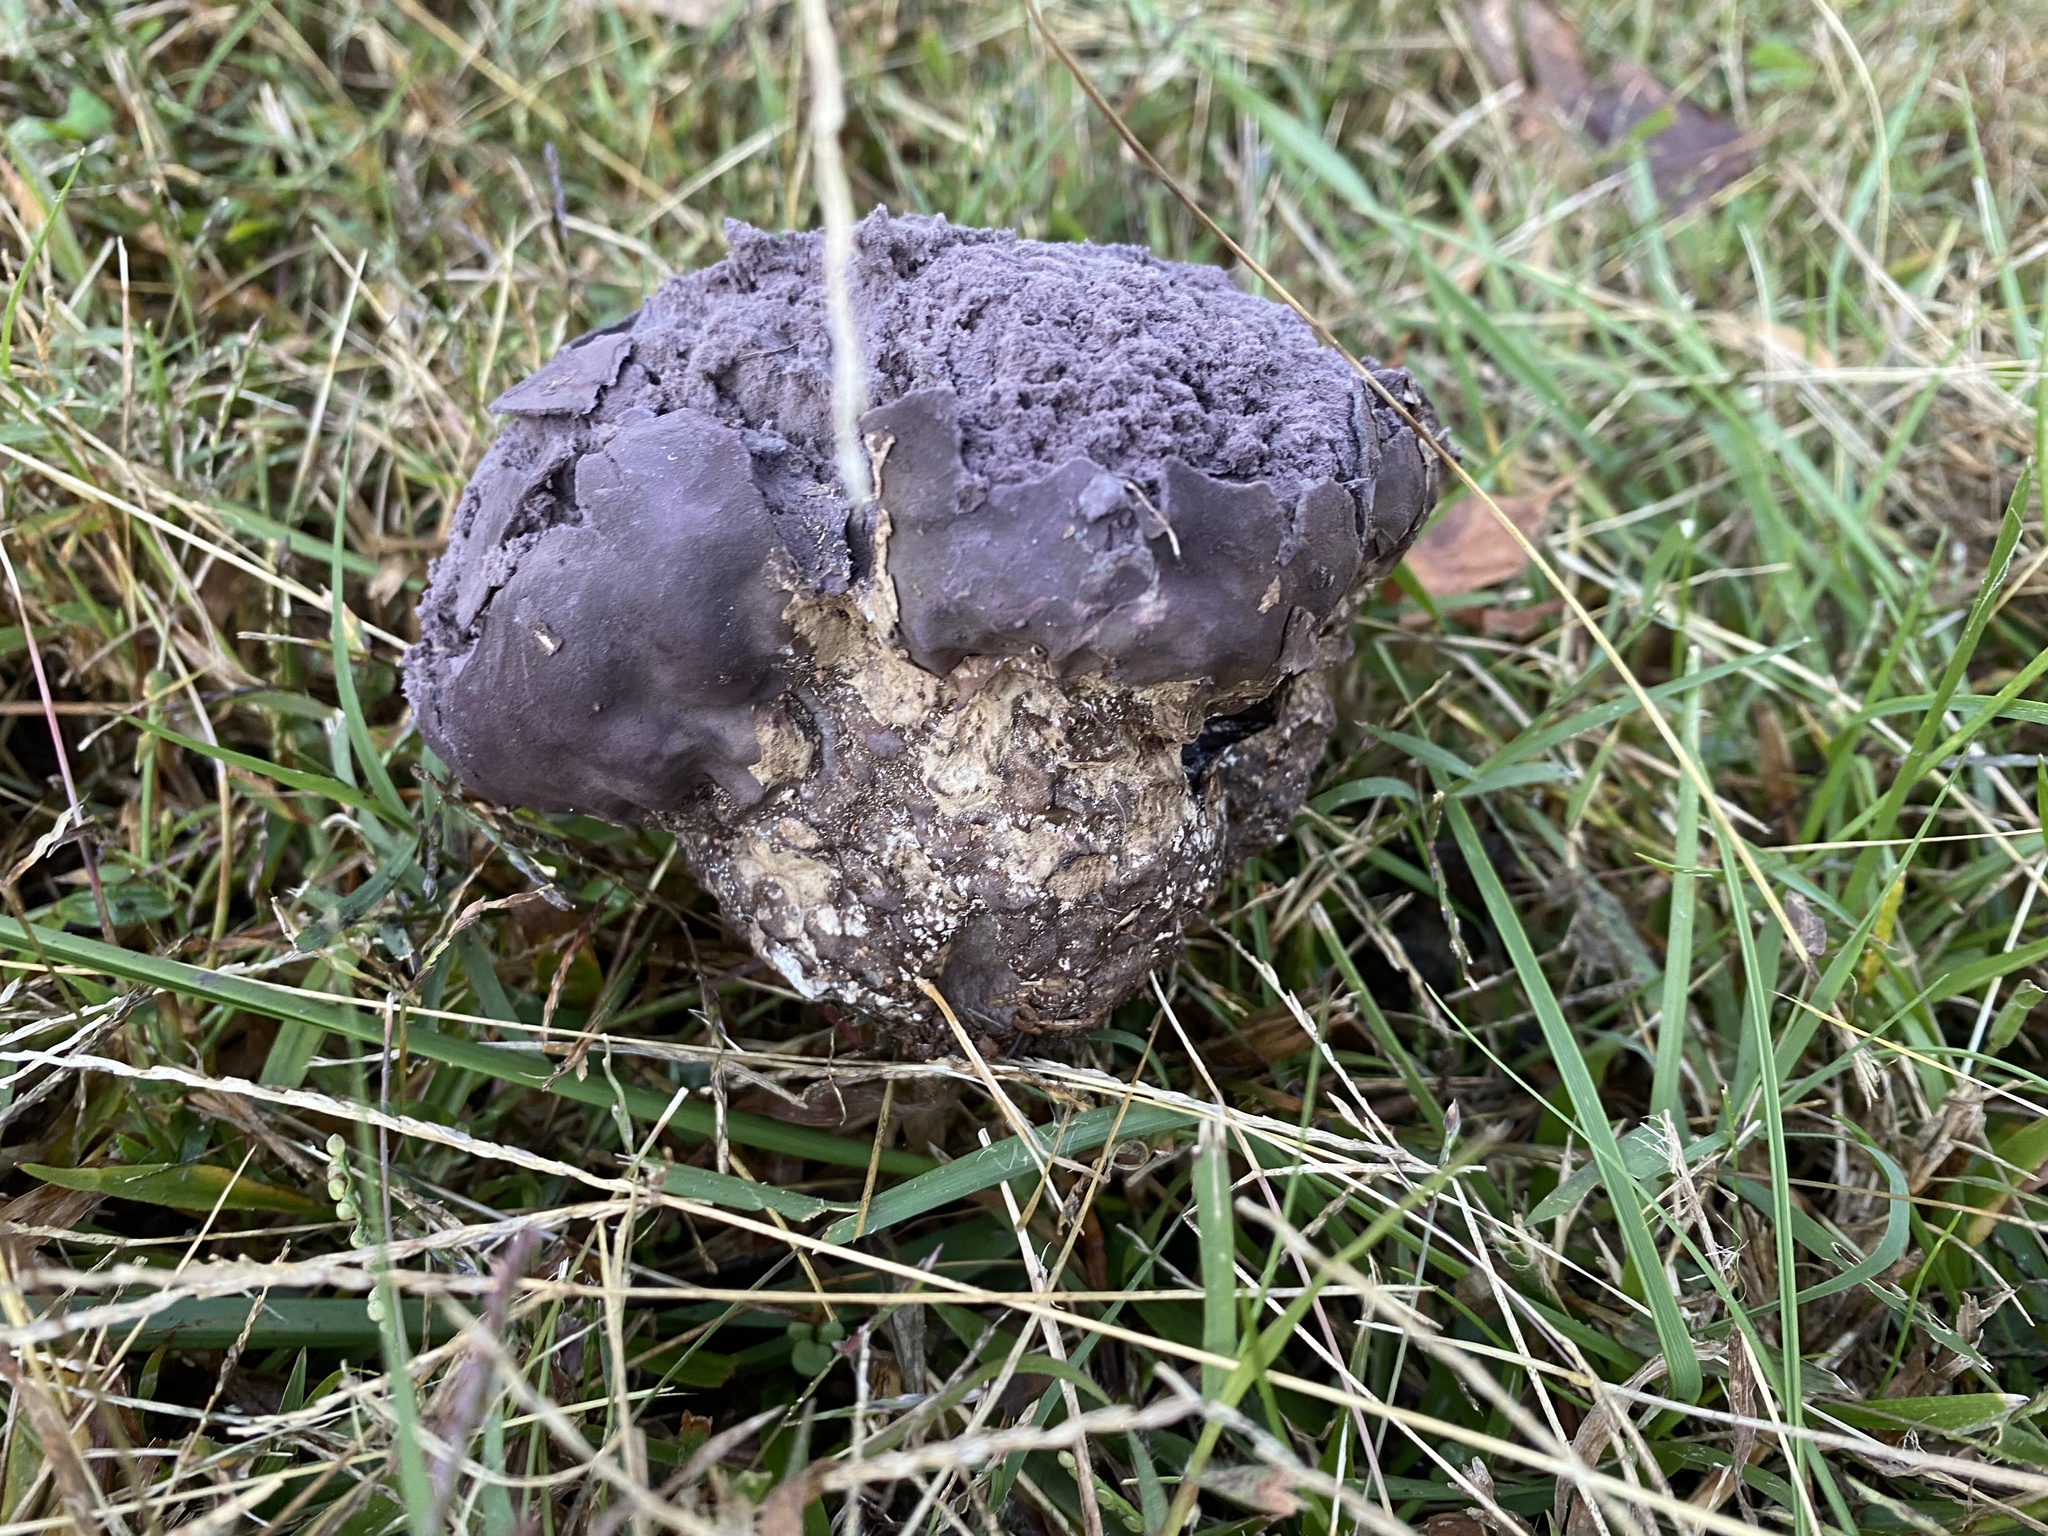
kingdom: Fungi
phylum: Basidiomycota
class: Agaricomycetes
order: Agaricales
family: Lycoperdaceae
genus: Calvatia
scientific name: Calvatia cyathiformis
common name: Purple-spored puffball
